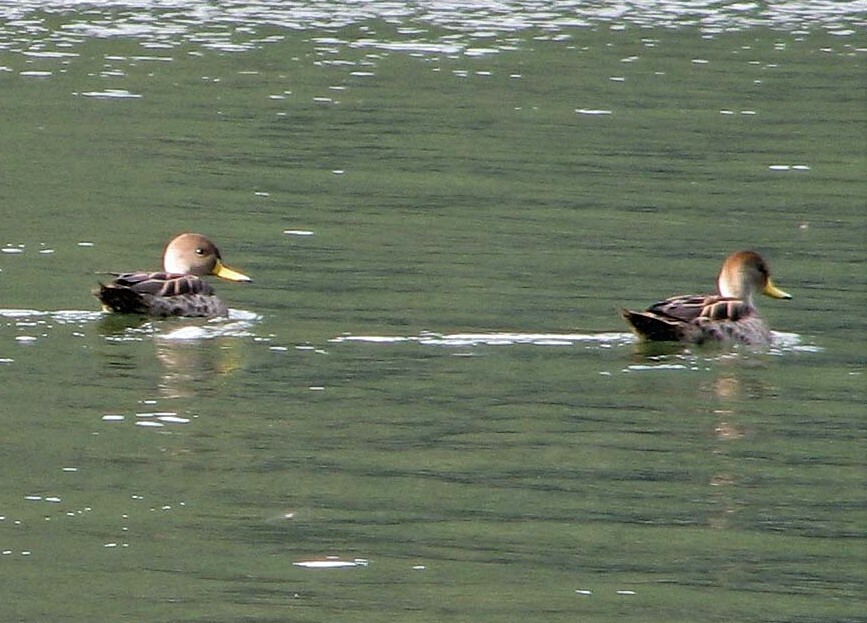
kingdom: Animalia
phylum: Chordata
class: Aves
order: Anseriformes
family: Anatidae
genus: Anas
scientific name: Anas georgica
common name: Yellow-billed pintail
